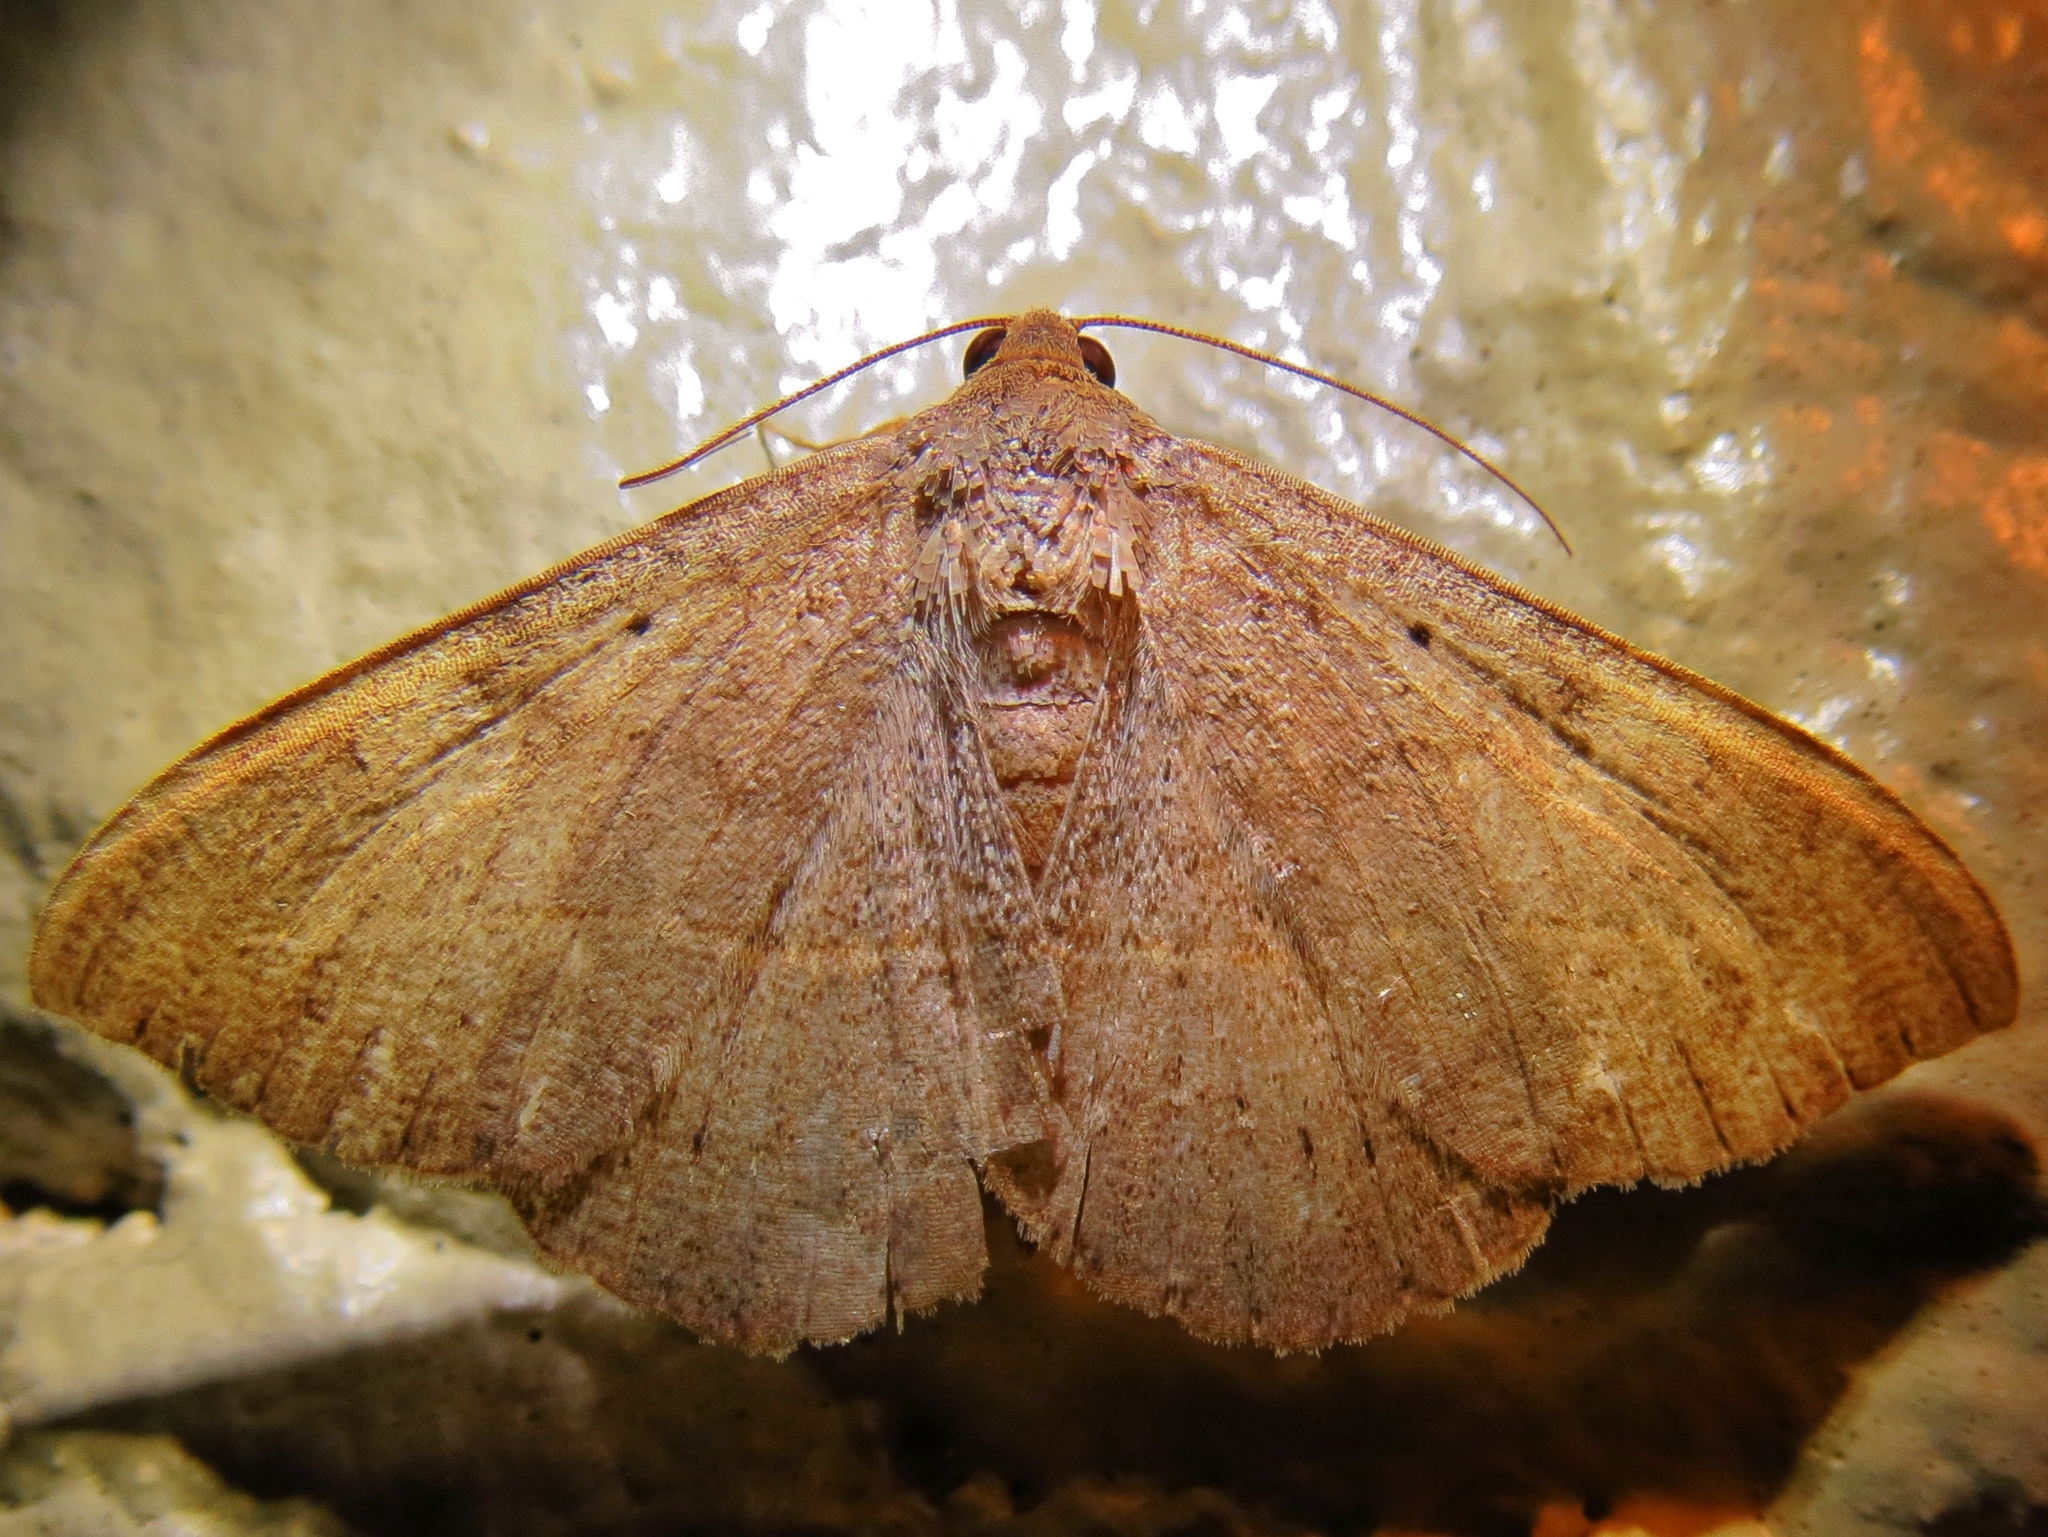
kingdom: Animalia
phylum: Arthropoda
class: Insecta
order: Lepidoptera
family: Erebidae
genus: Anticarsia
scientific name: Anticarsia gemmatalis
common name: Cutworm moth
